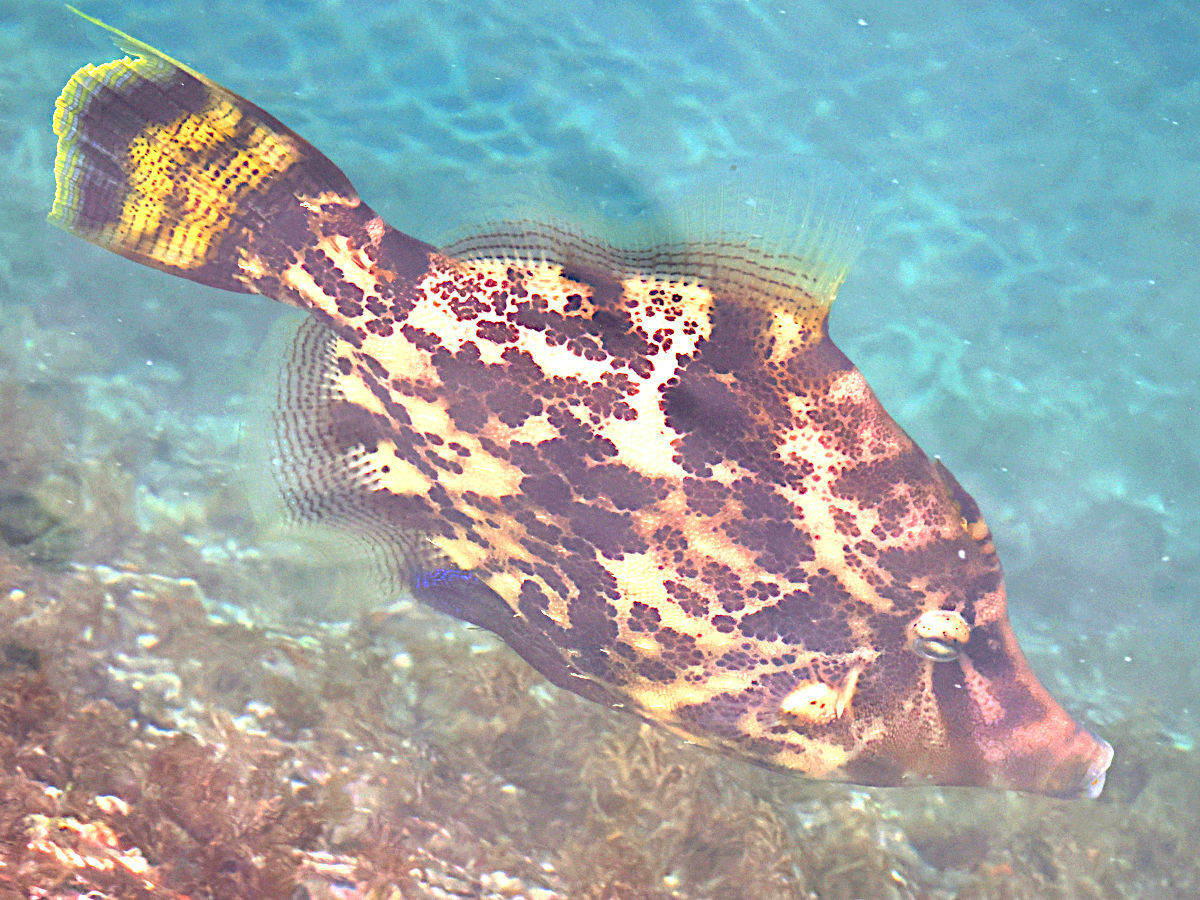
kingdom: Animalia
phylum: Chordata
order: Tetraodontiformes
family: Monacanthidae
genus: Monacanthus
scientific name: Monacanthus chinensis
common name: Centreboard leatherjacket
